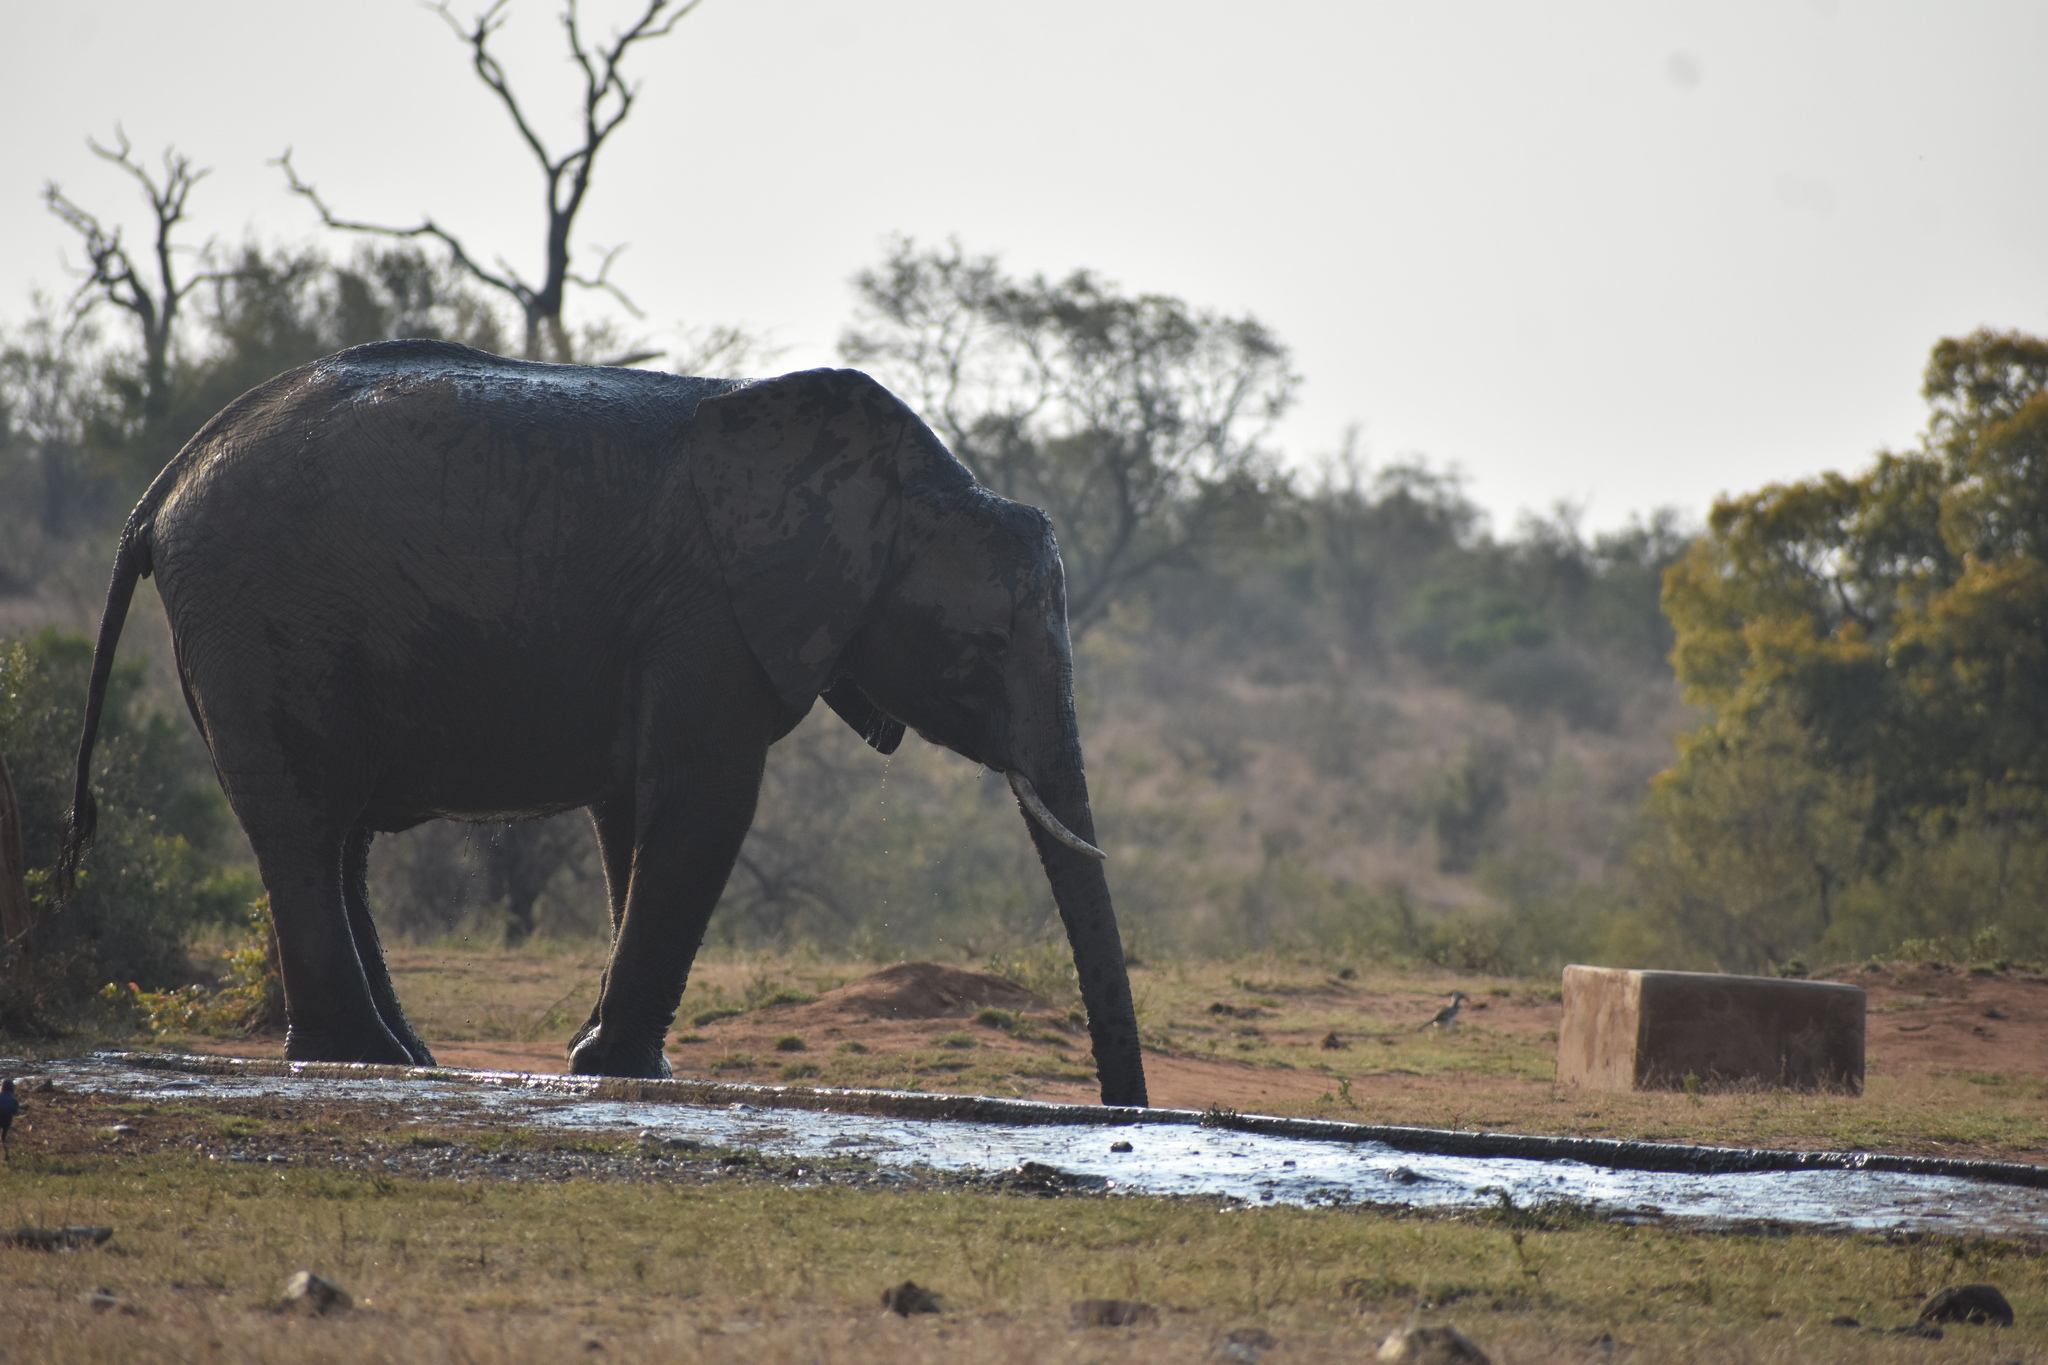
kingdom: Animalia
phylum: Chordata
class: Mammalia
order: Proboscidea
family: Elephantidae
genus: Loxodonta
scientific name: Loxodonta africana
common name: African elephant
